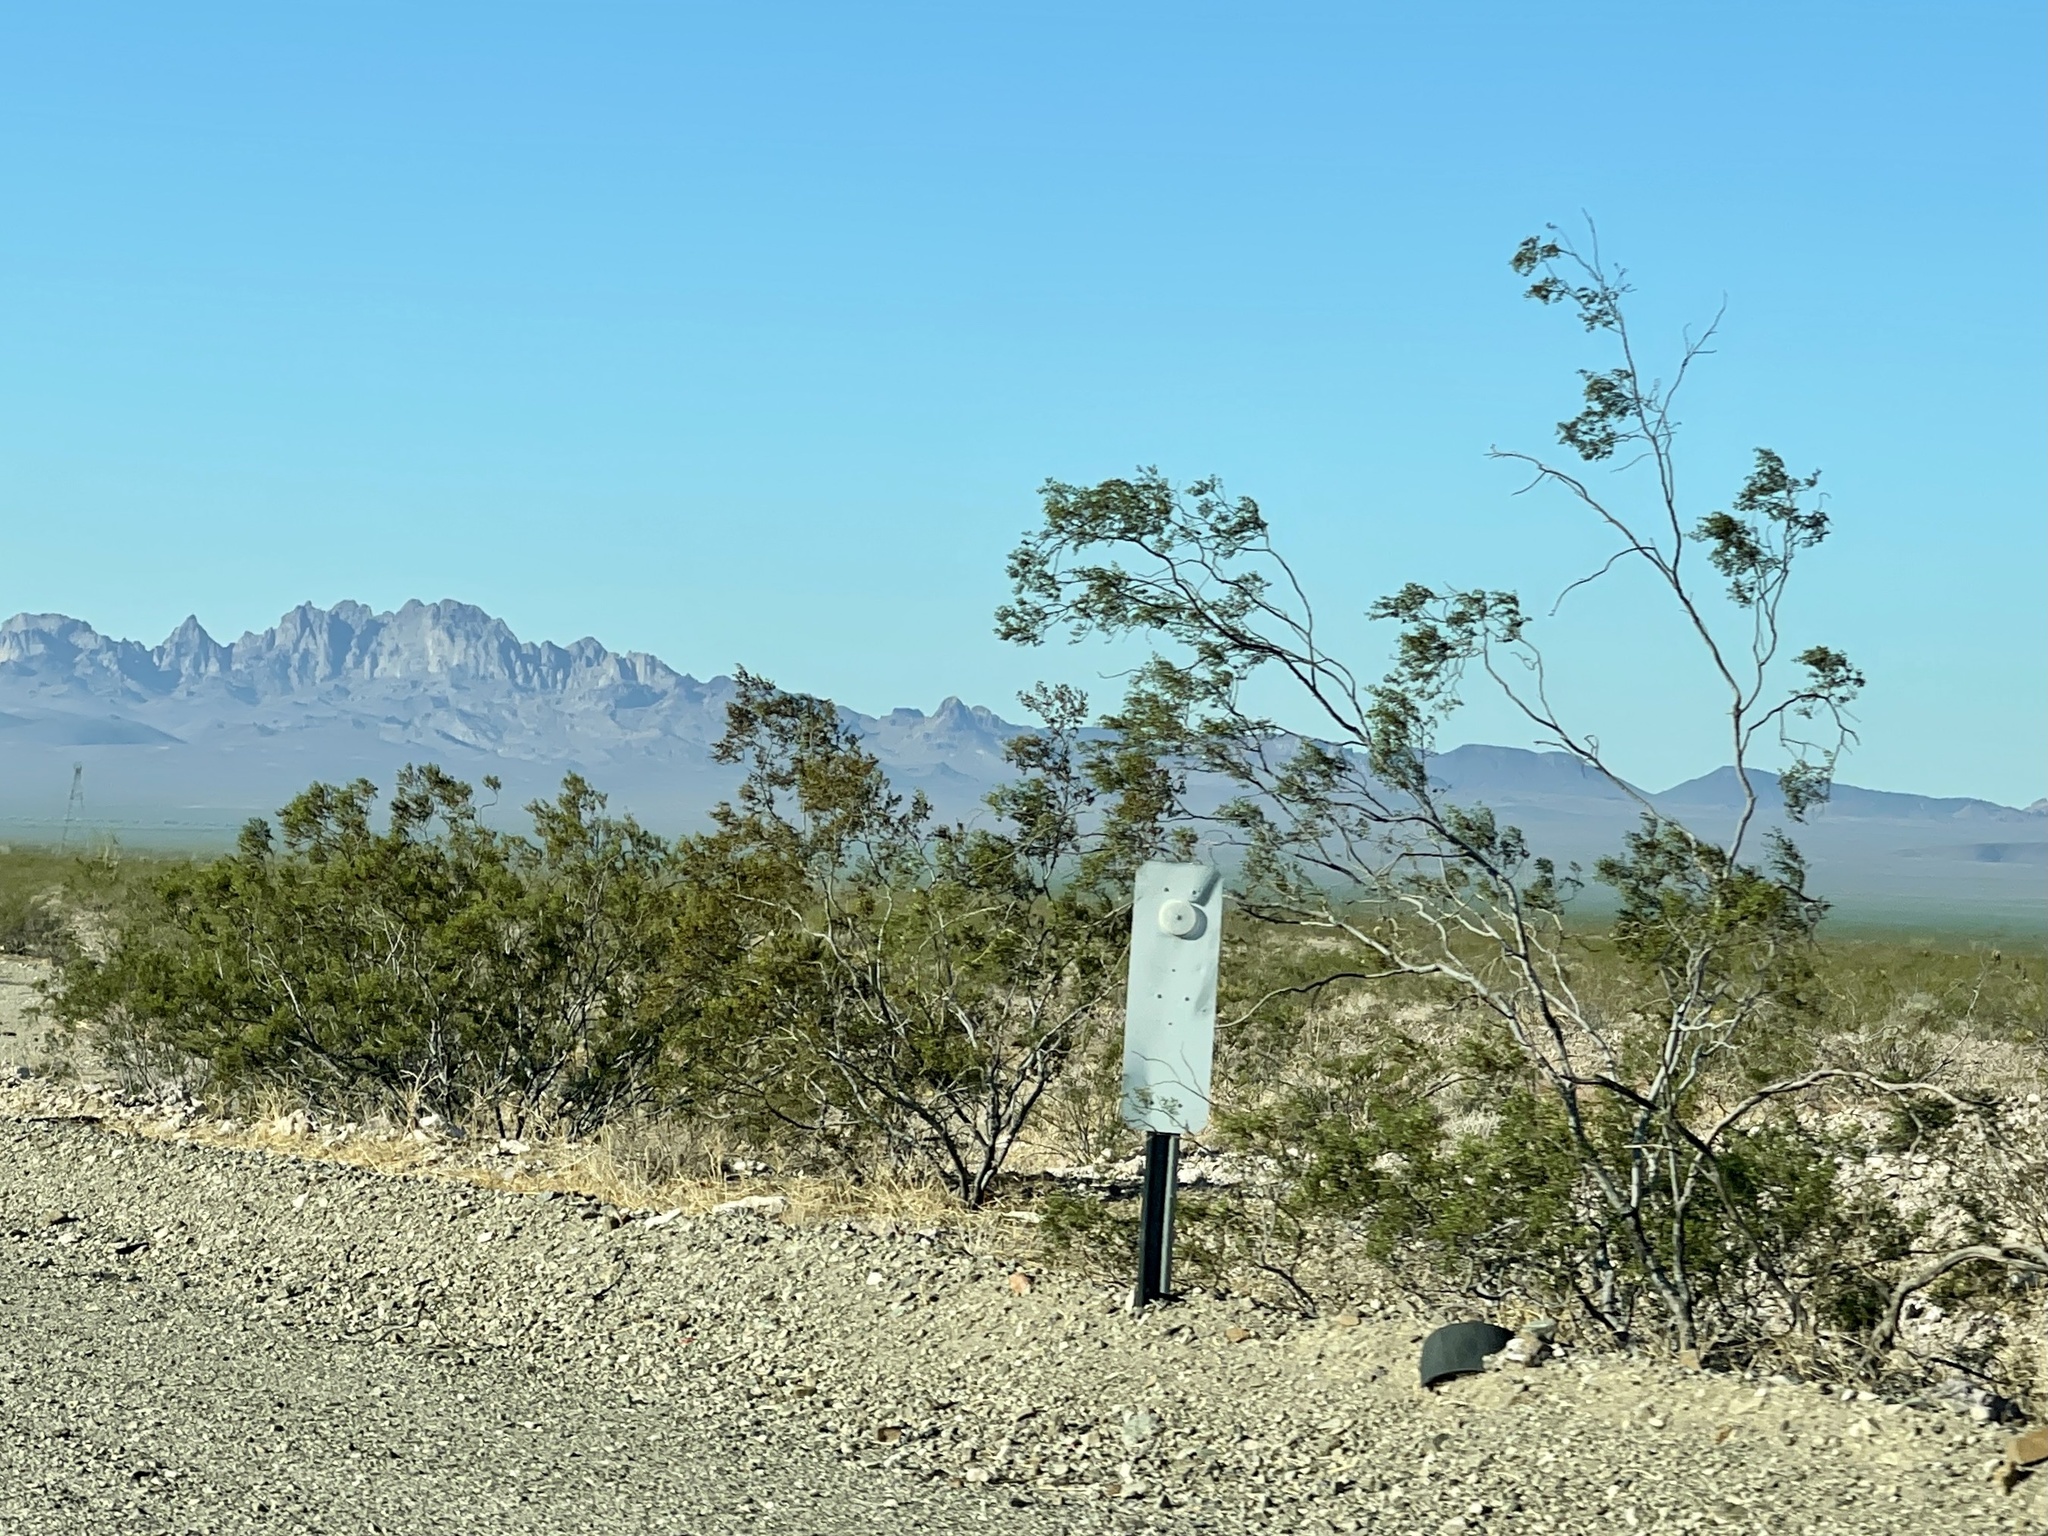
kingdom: Plantae
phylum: Tracheophyta
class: Magnoliopsida
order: Zygophyllales
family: Zygophyllaceae
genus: Larrea
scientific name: Larrea tridentata
